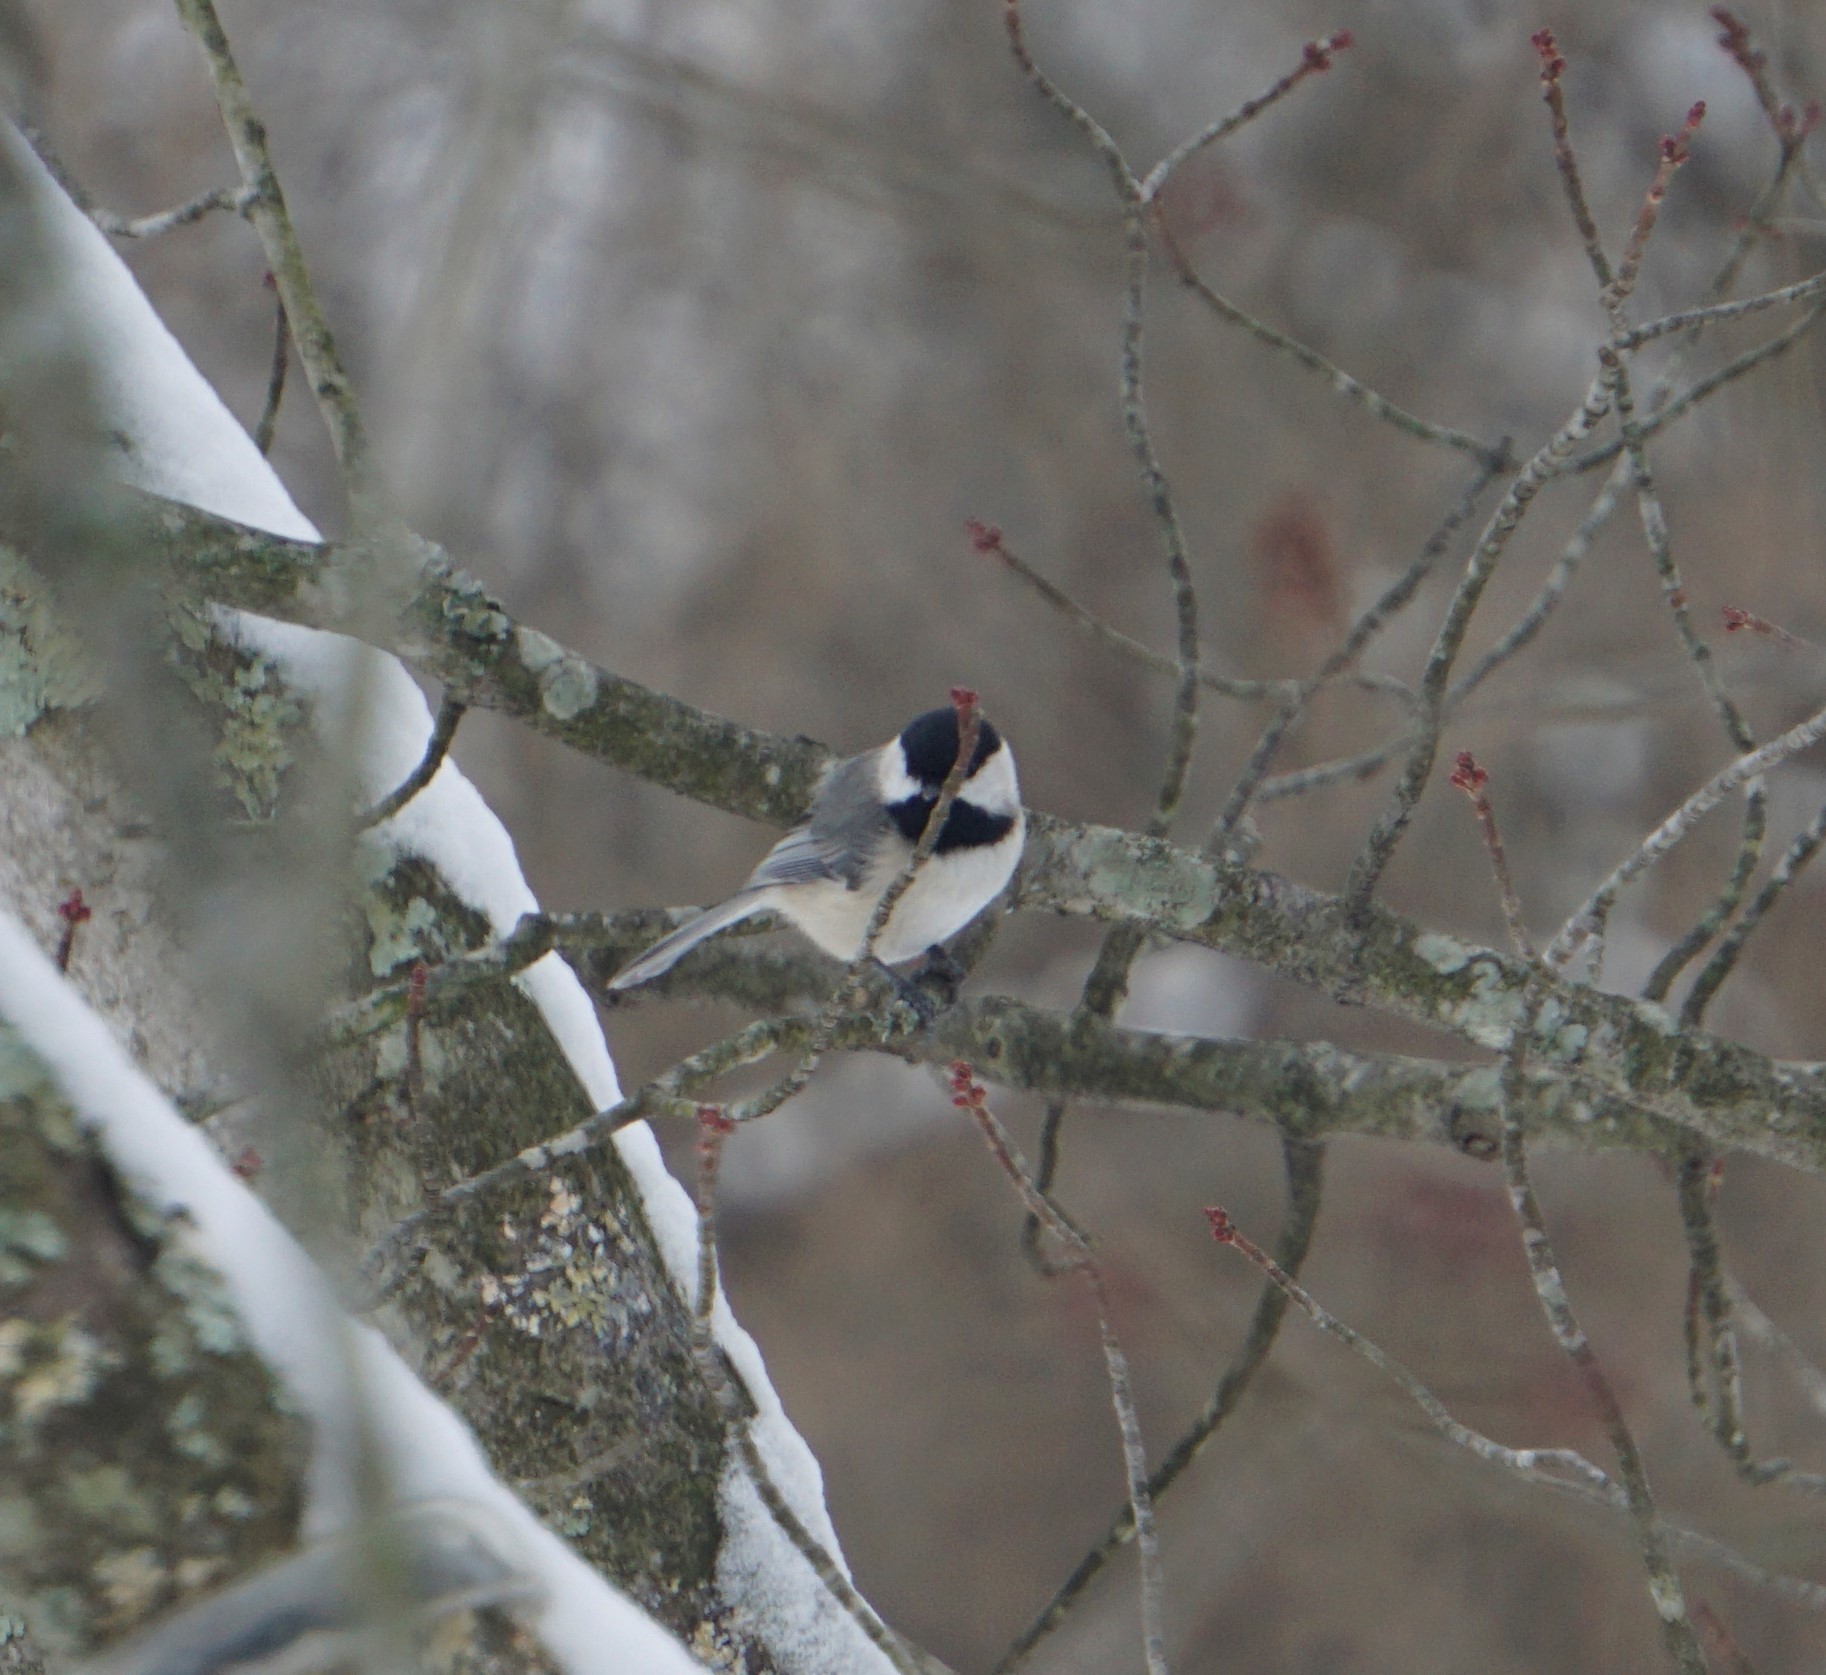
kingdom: Animalia
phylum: Chordata
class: Aves
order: Passeriformes
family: Paridae
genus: Poecile
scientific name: Poecile carolinensis
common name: Carolina chickadee
